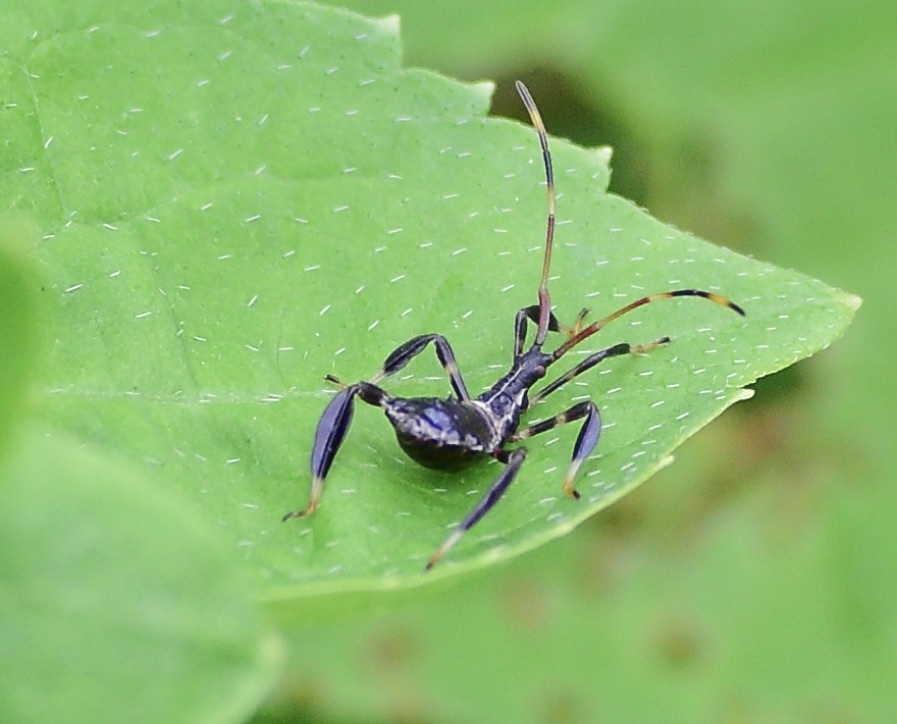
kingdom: Animalia
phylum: Arthropoda
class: Insecta
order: Hemiptera
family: Coreidae
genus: Acanthocephala
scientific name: Acanthocephala terminalis
